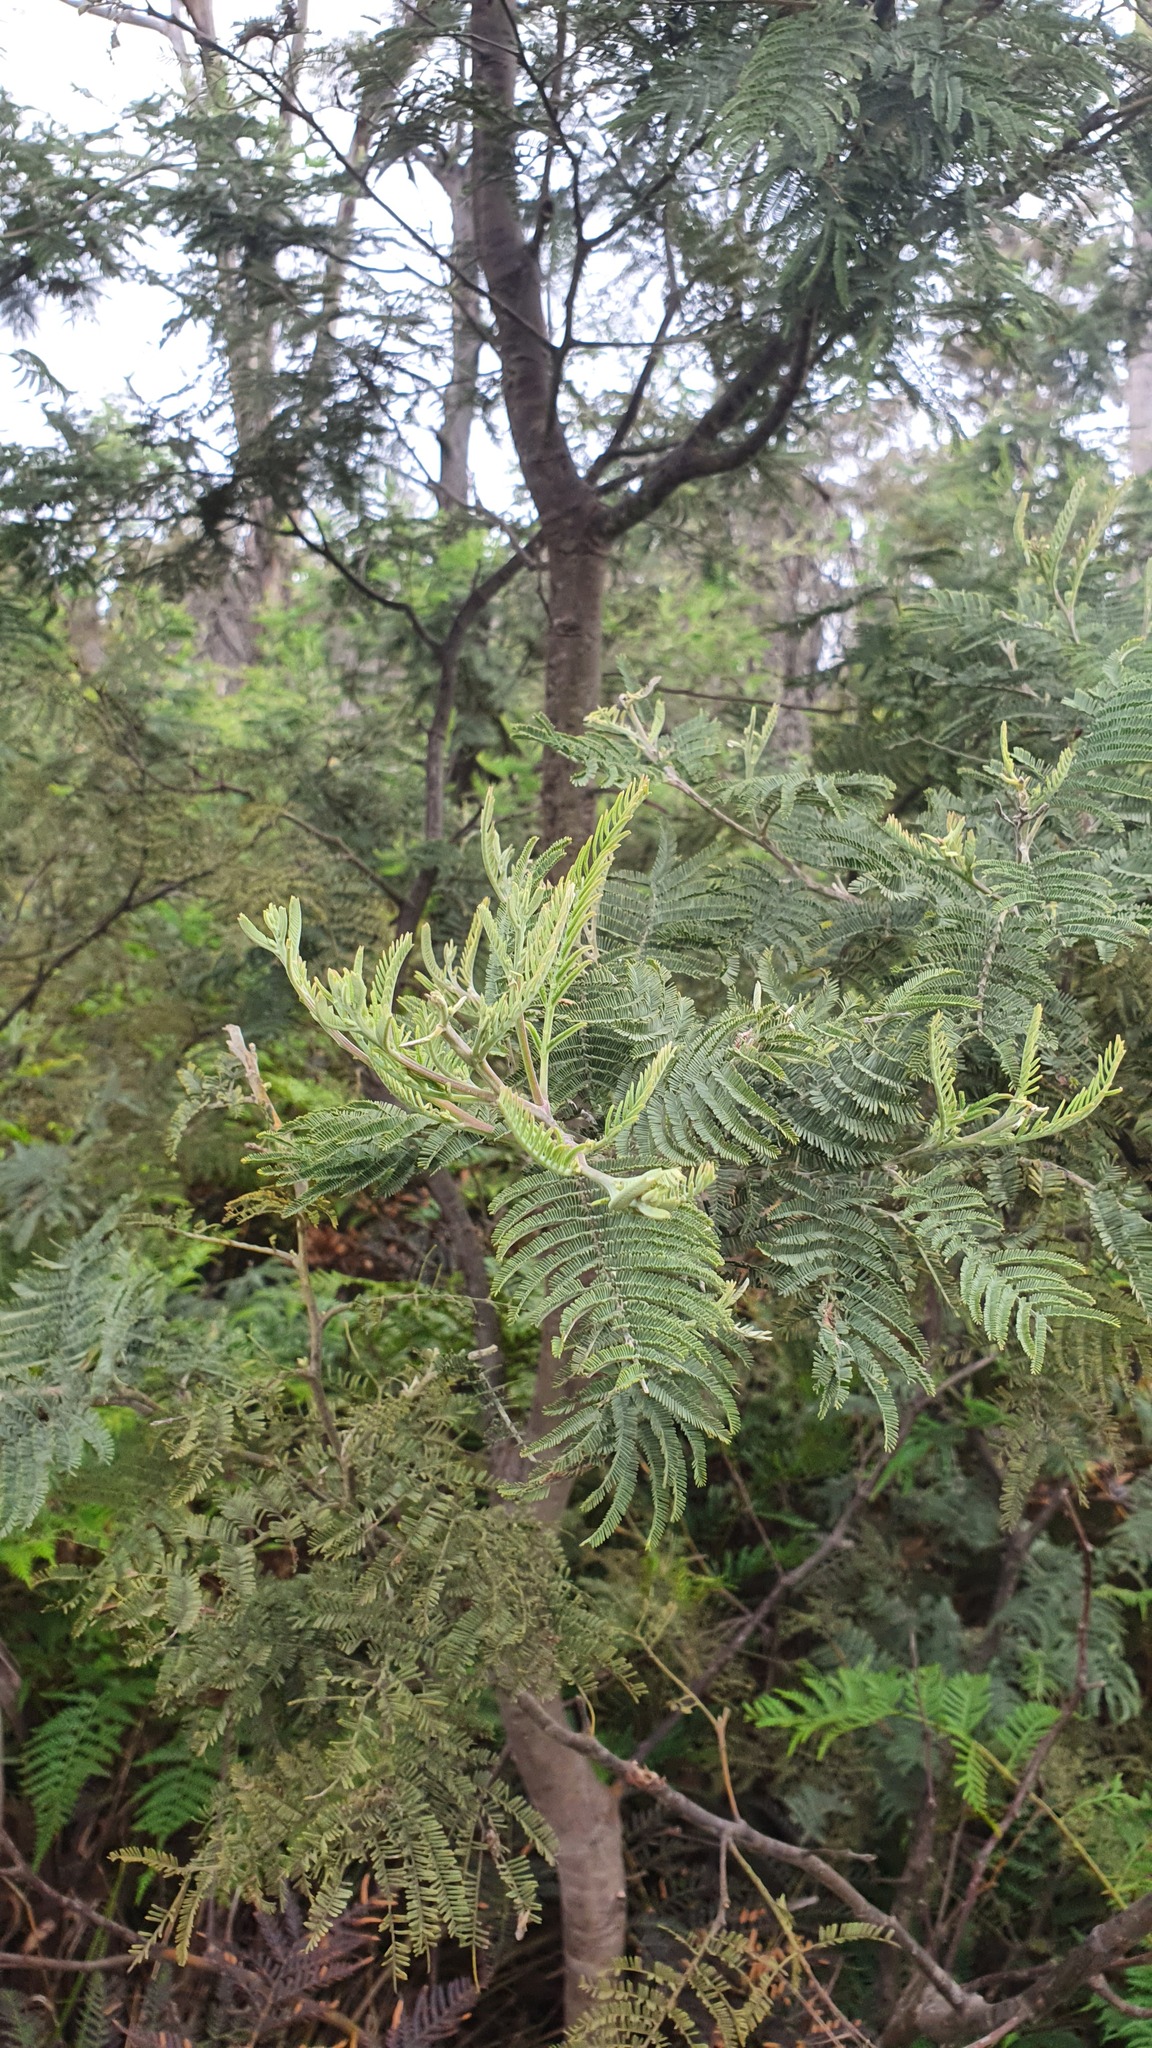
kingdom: Plantae
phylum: Tracheophyta
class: Magnoliopsida
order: Fabales
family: Fabaceae
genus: Acacia
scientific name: Acacia dealbata
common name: Silver wattle
